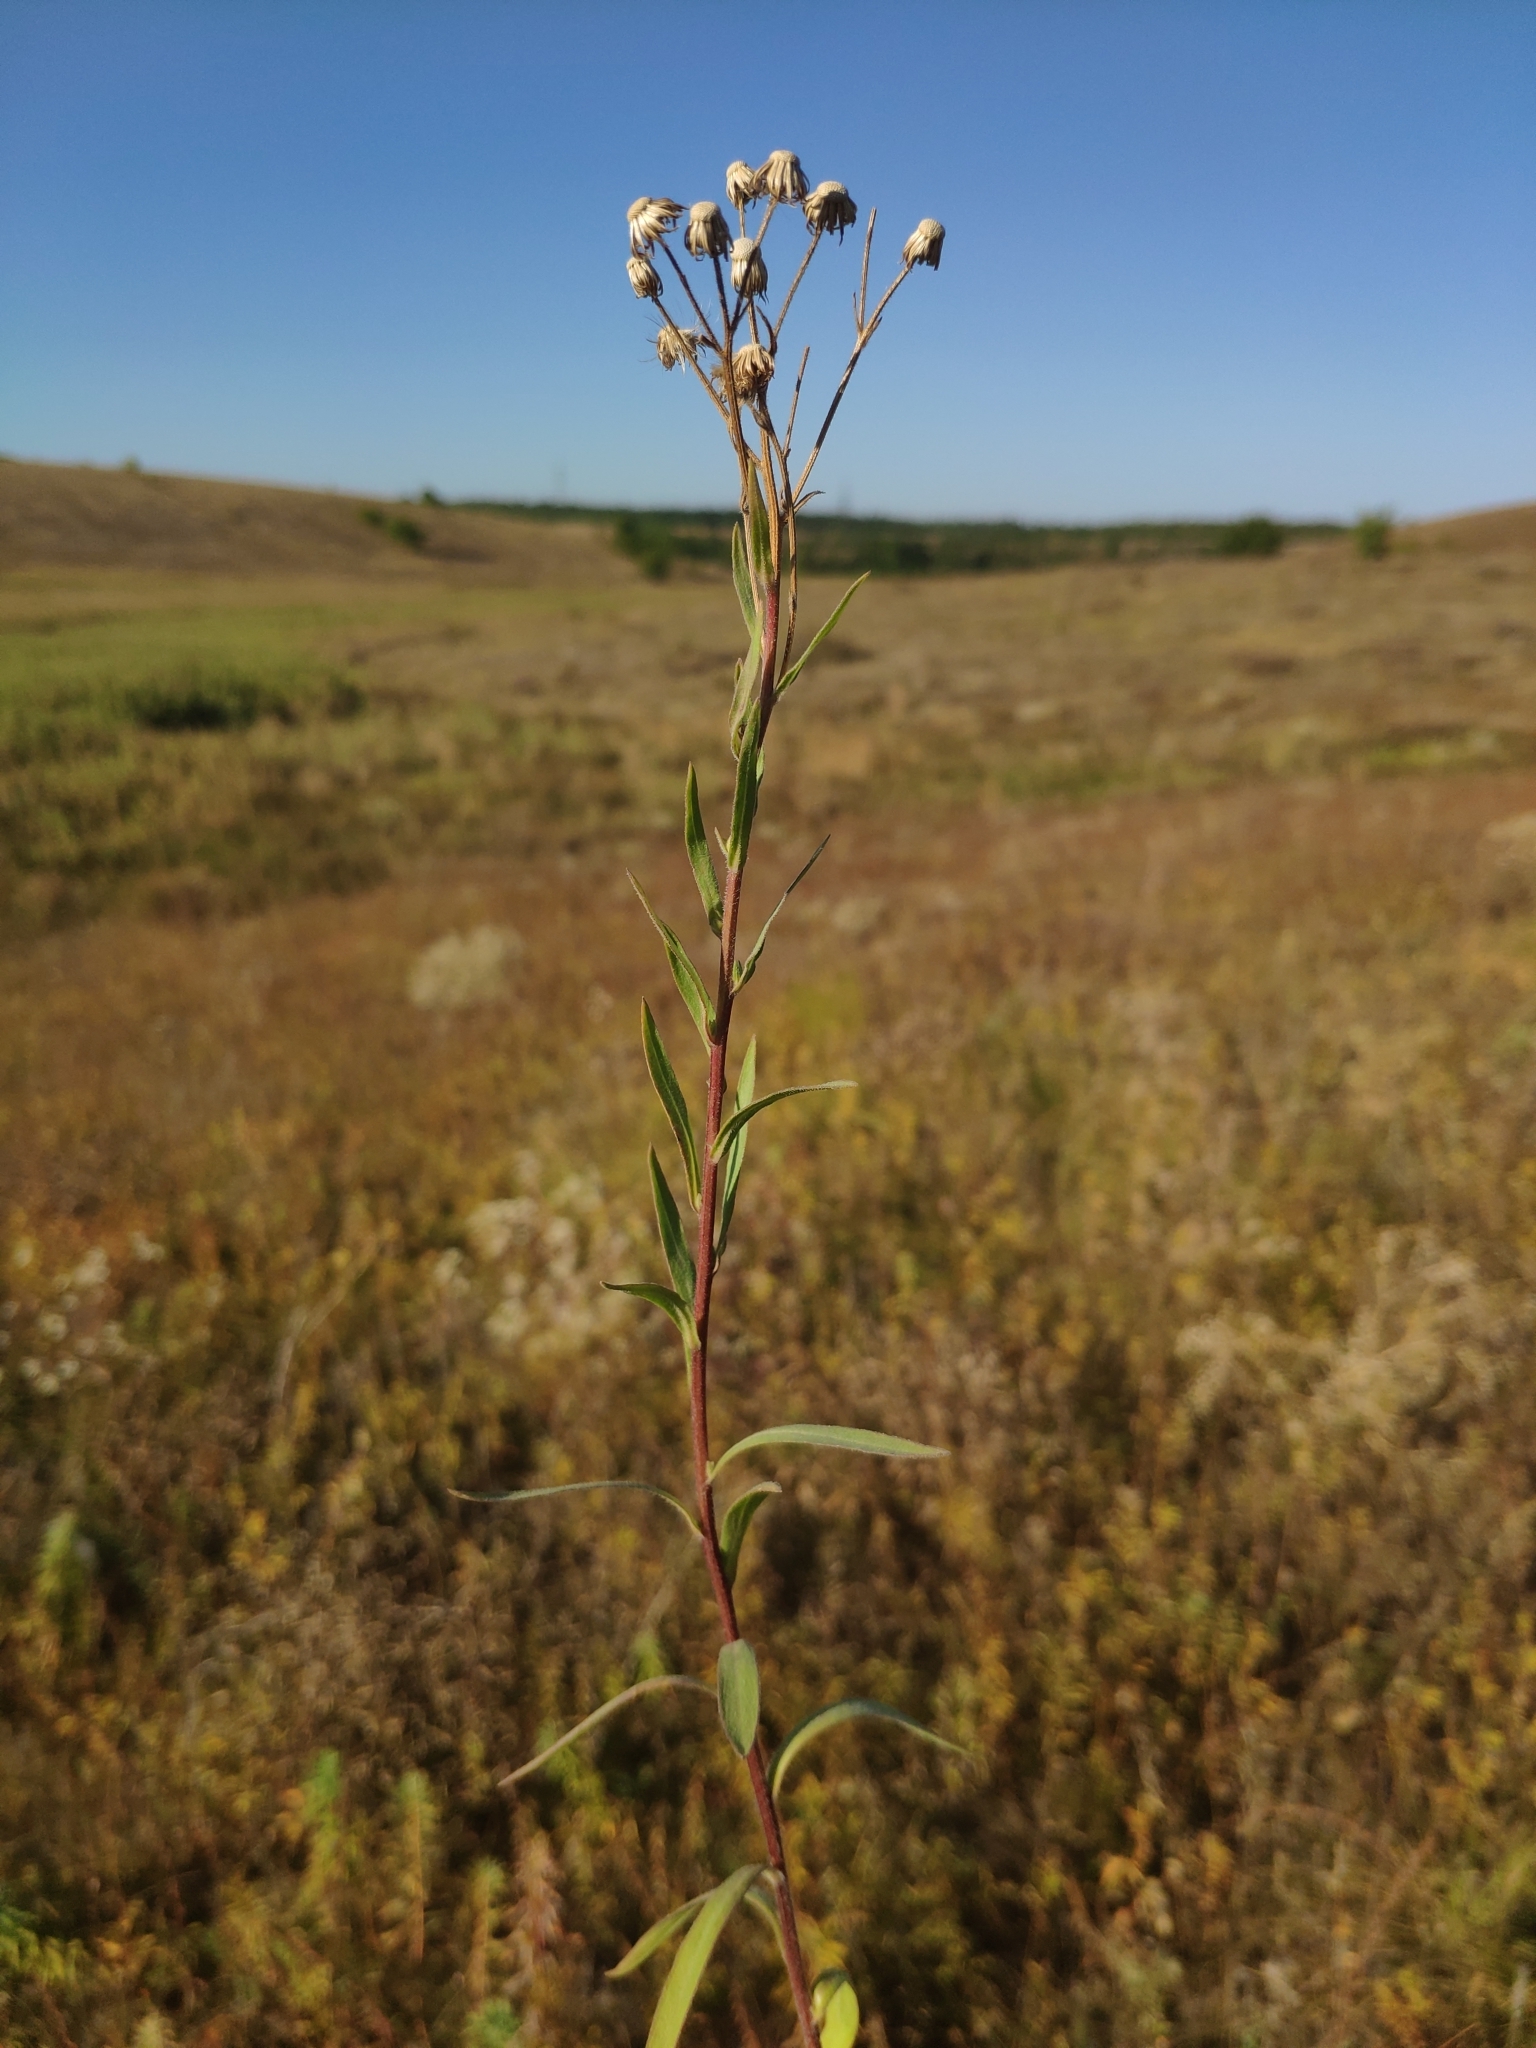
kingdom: Plantae
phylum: Tracheophyta
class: Magnoliopsida
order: Asterales
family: Asteraceae
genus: Erigeron
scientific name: Erigeron podolicus
